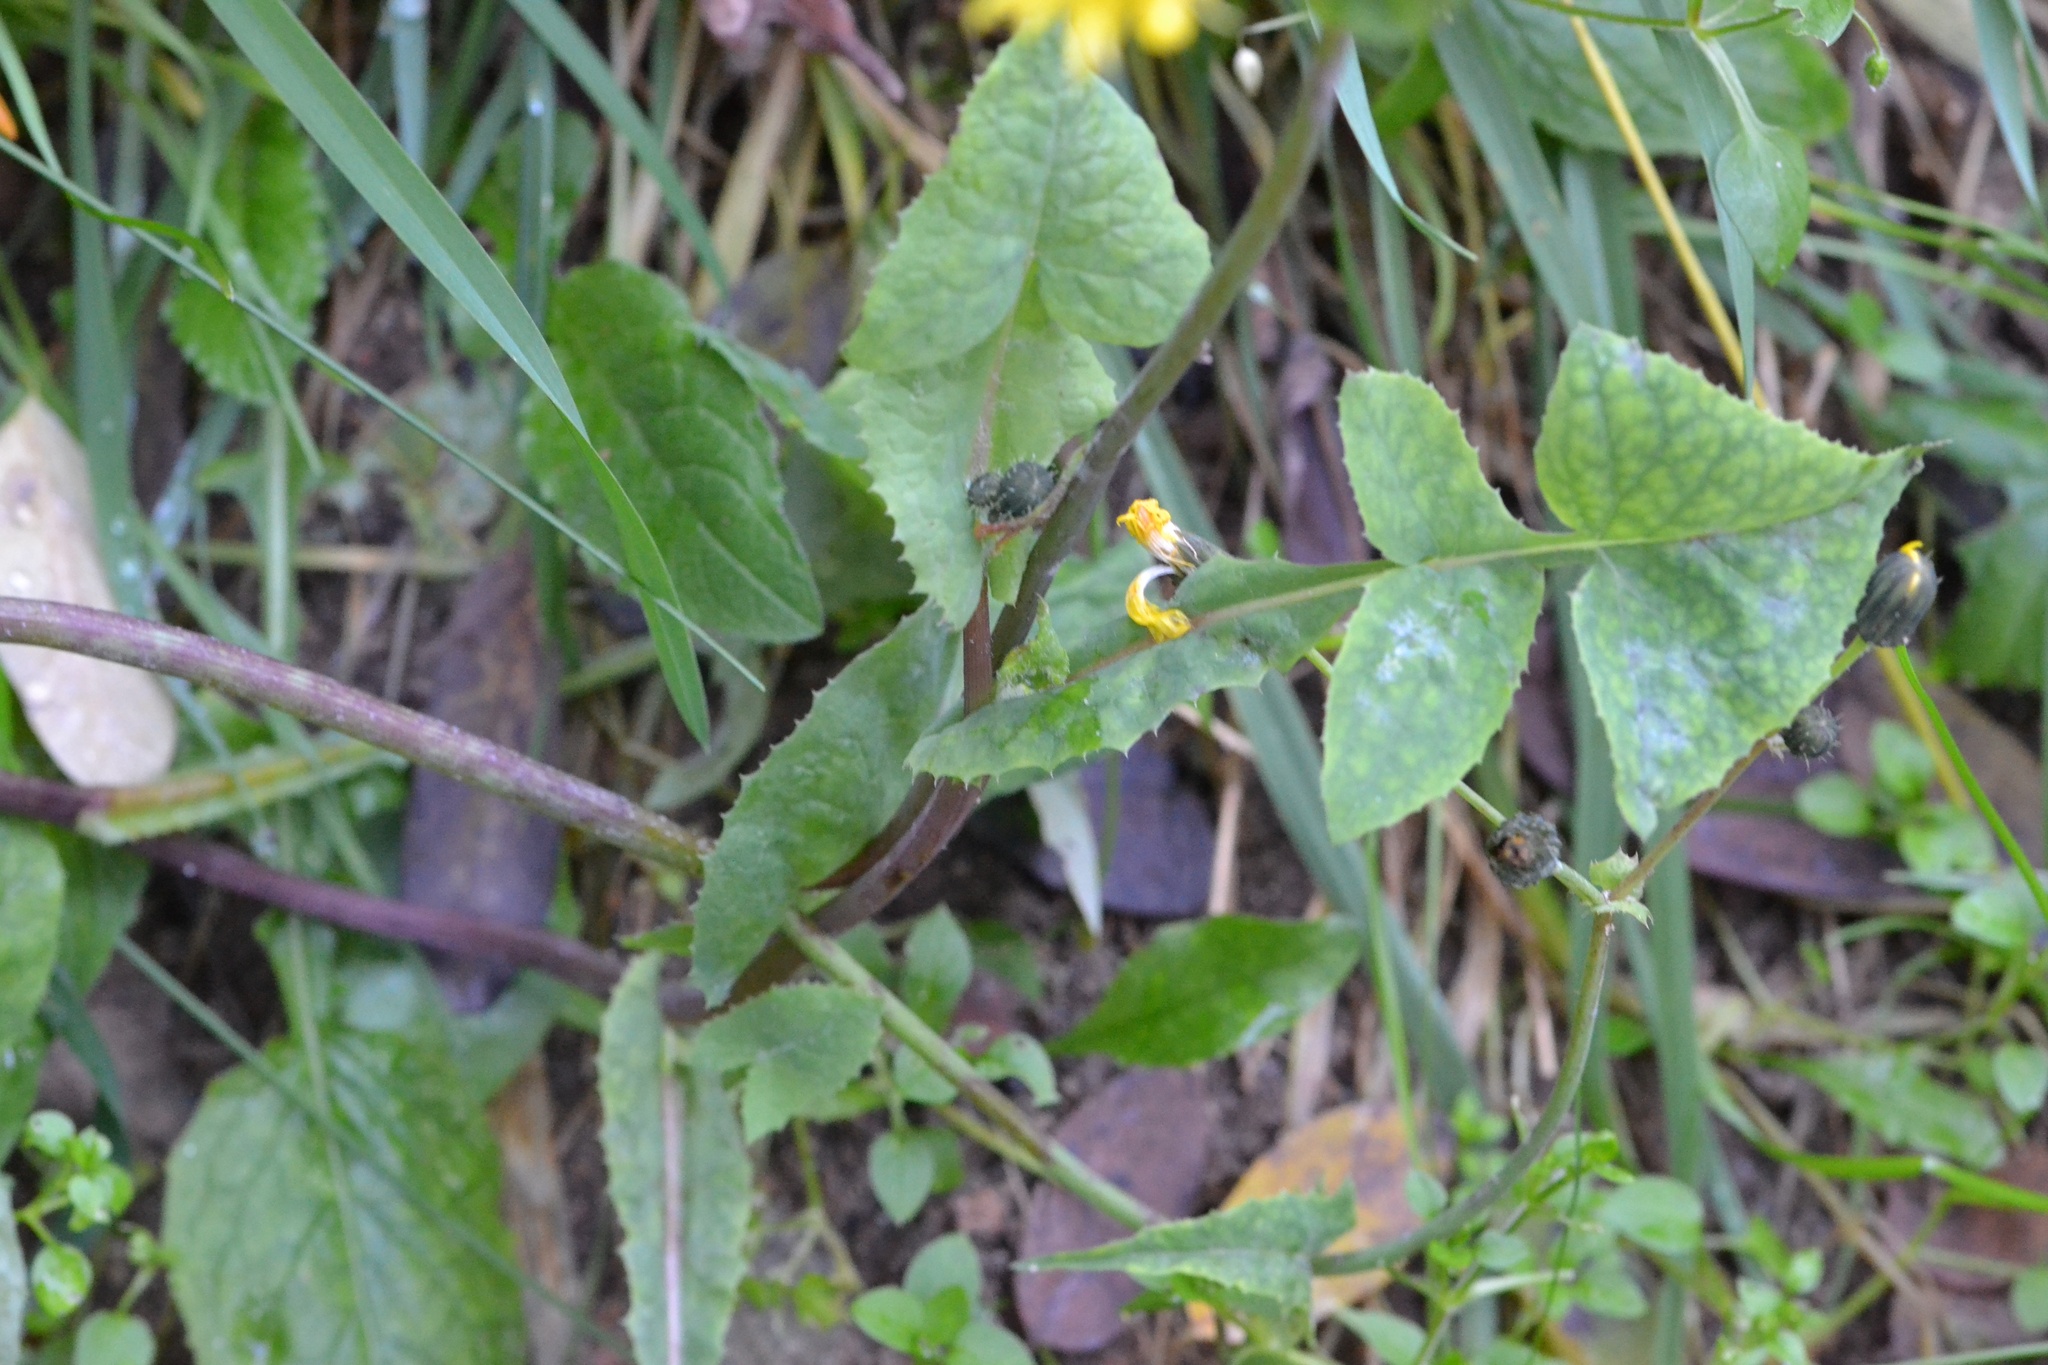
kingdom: Plantae
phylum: Tracheophyta
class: Magnoliopsida
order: Asterales
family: Asteraceae
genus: Sonchus
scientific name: Sonchus oleraceus
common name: Common sowthistle
